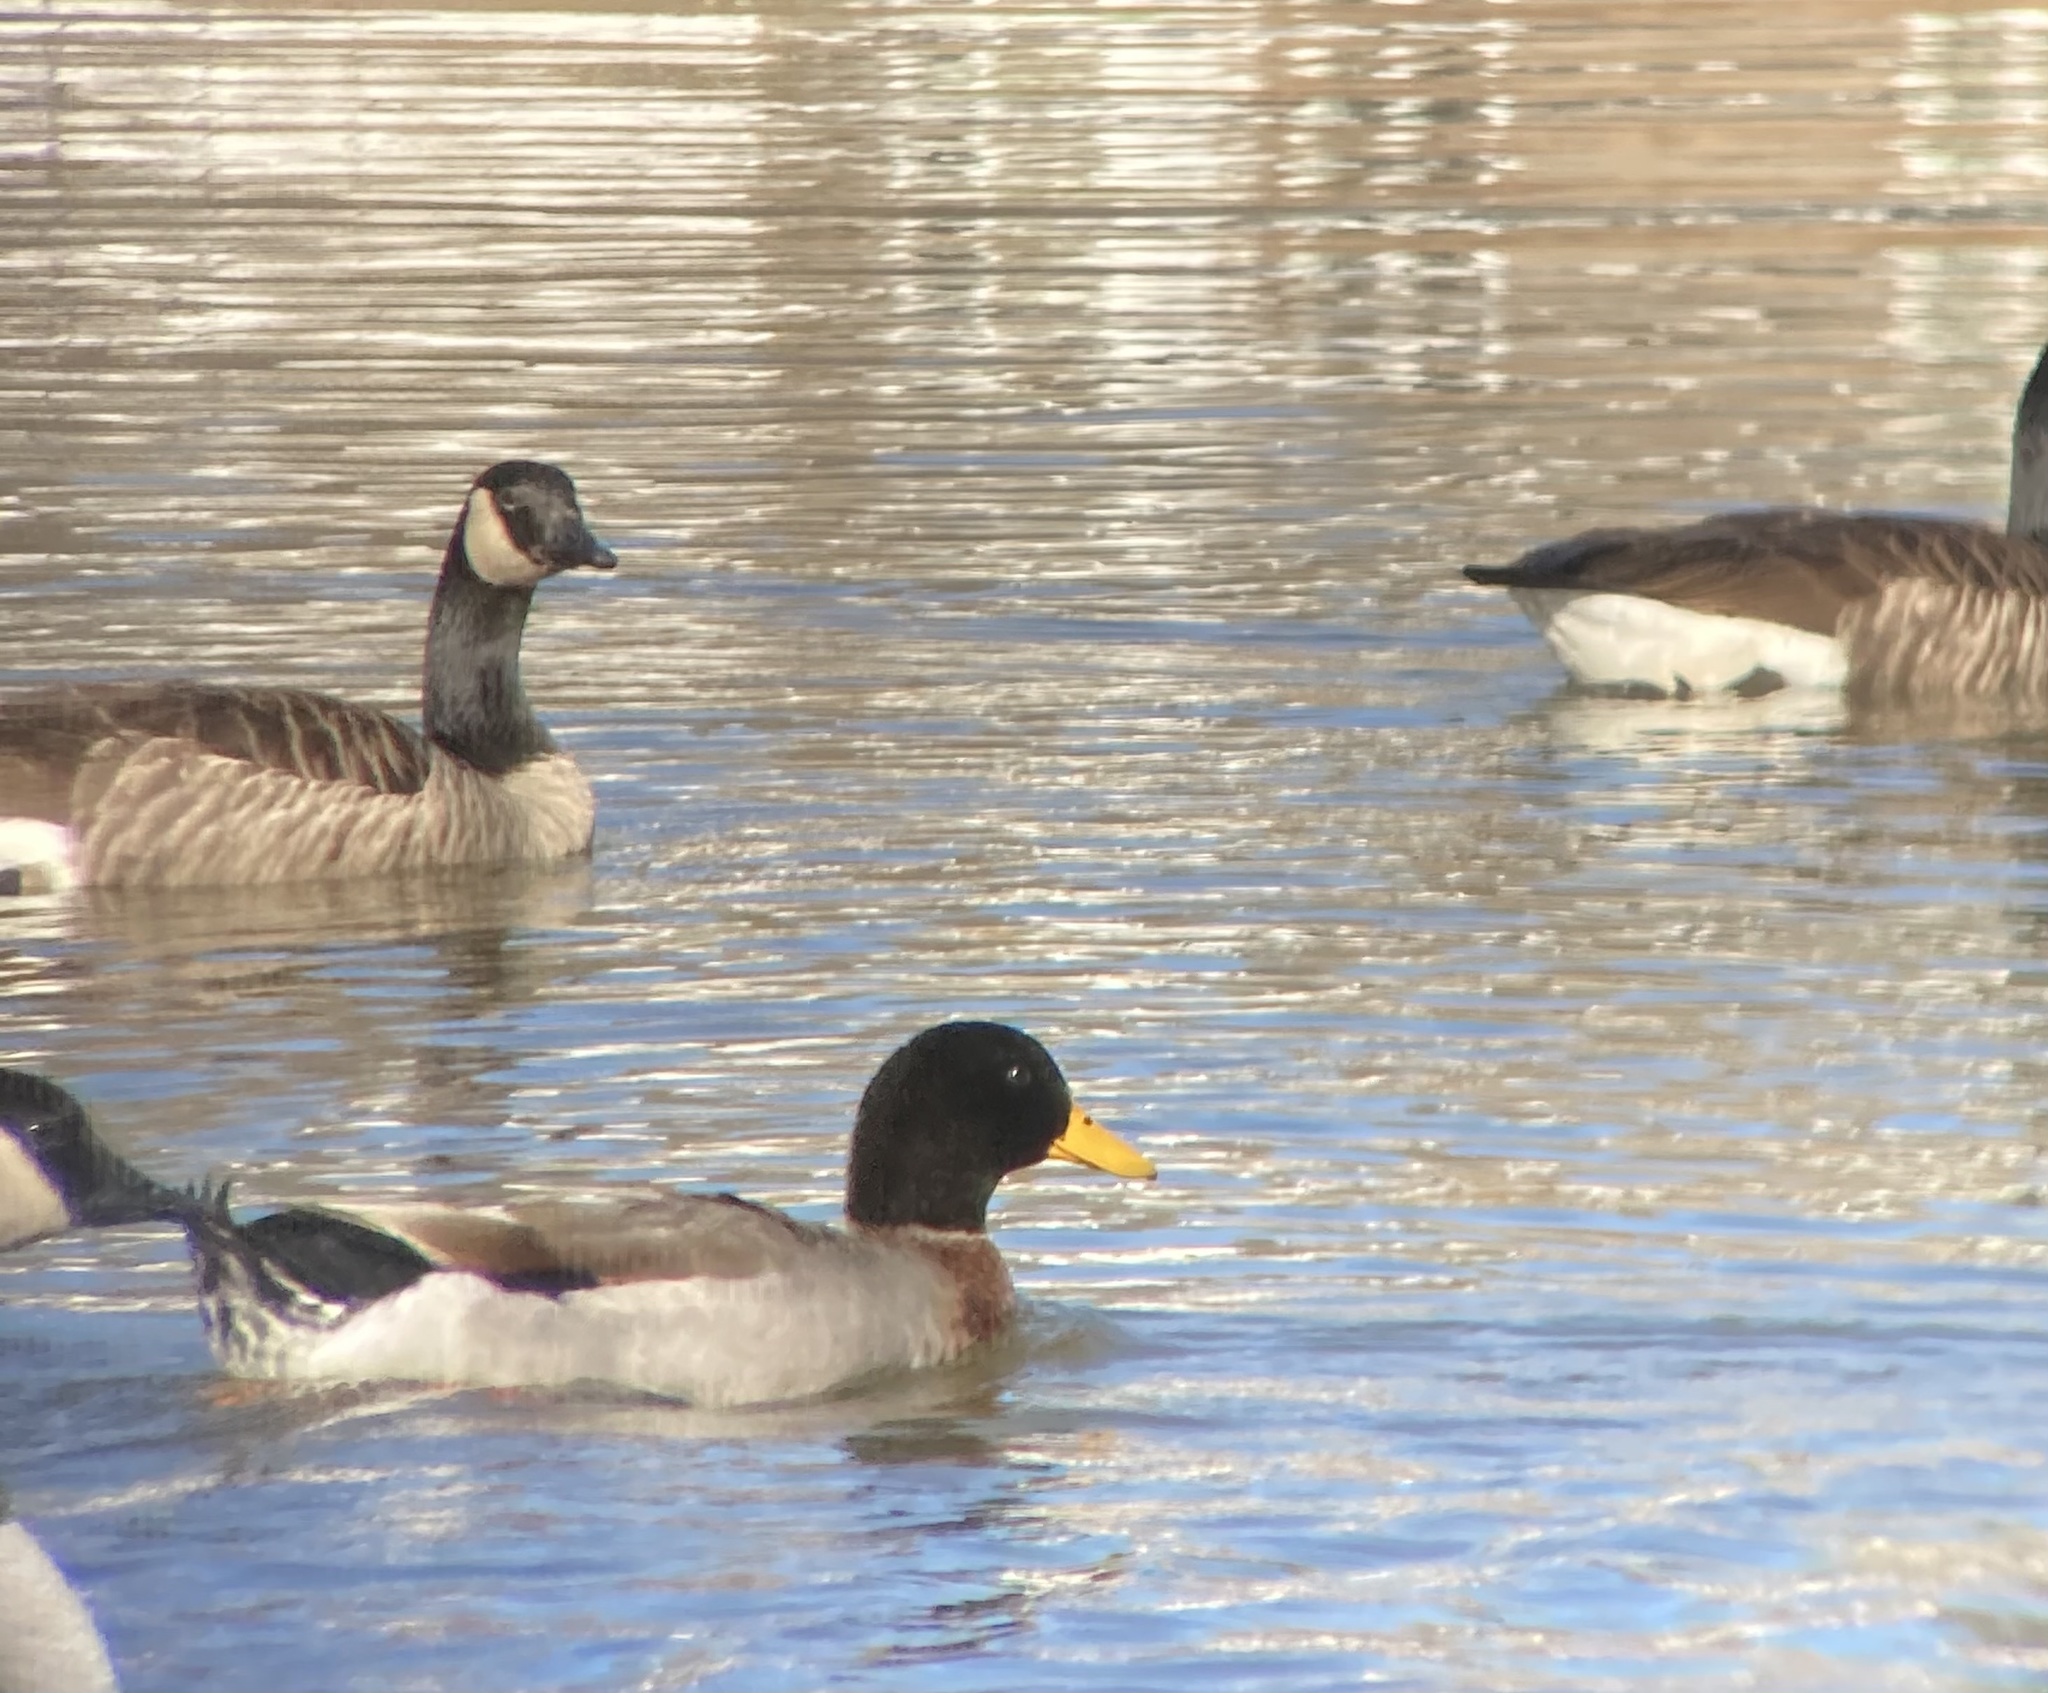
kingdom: Animalia
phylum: Chordata
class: Aves
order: Anseriformes
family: Anatidae
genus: Anas
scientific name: Anas platyrhynchos
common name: Mallard
